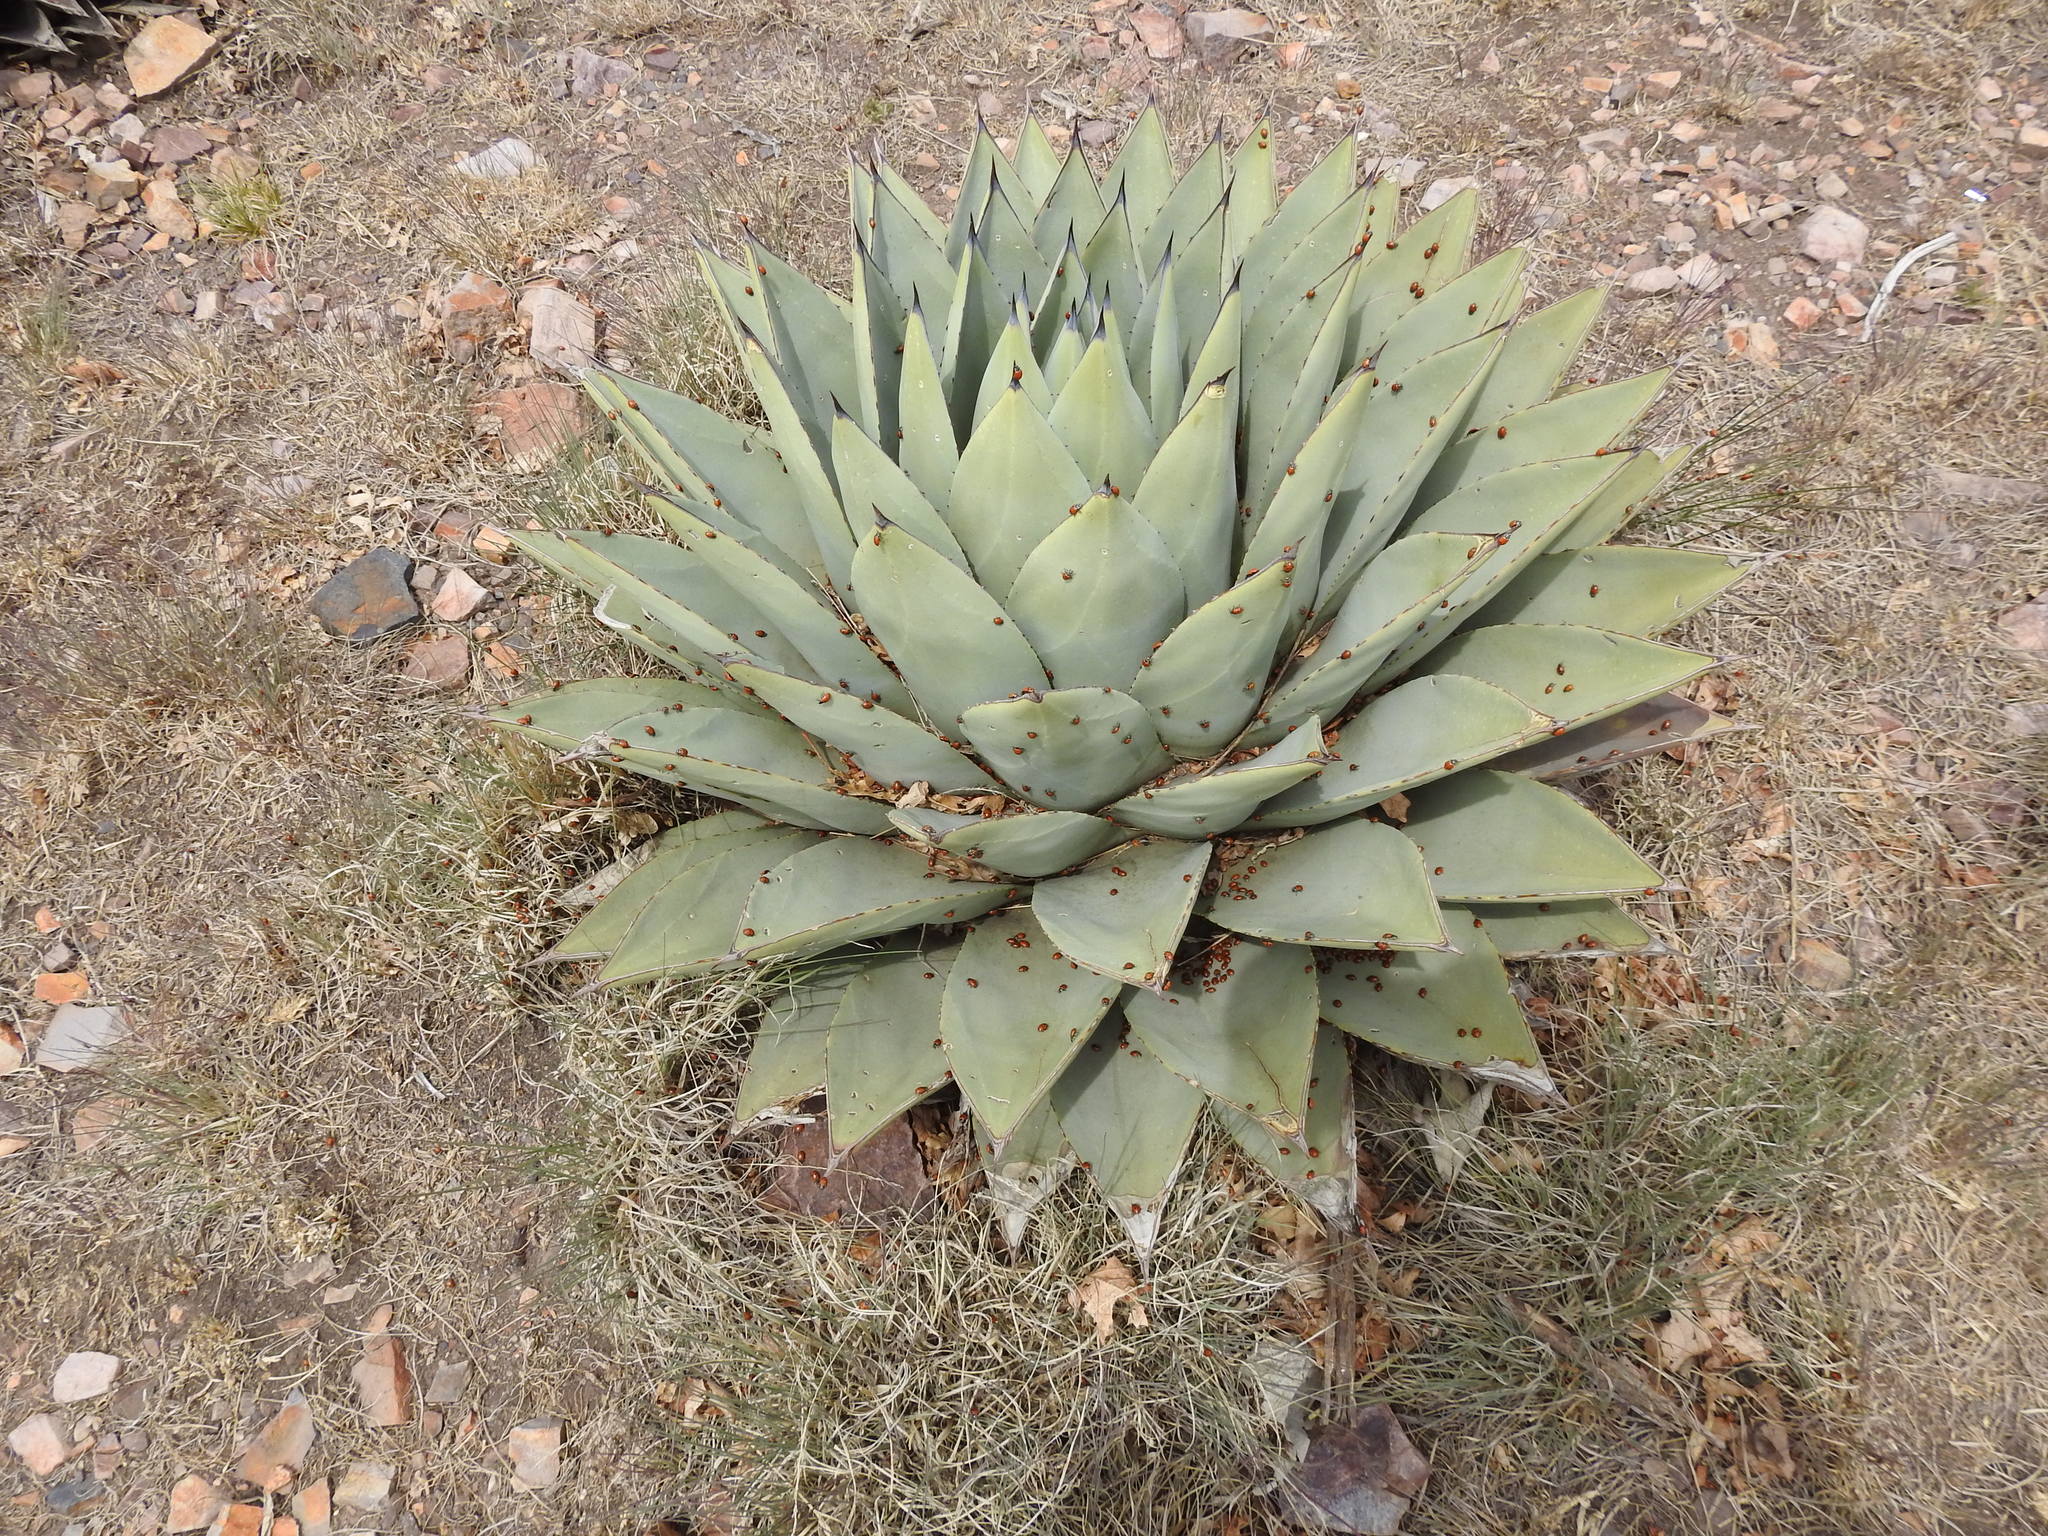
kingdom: Plantae
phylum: Tracheophyta
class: Liliopsida
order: Asparagales
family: Asparagaceae
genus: Agave
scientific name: Agave parryi
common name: Parry's agave
